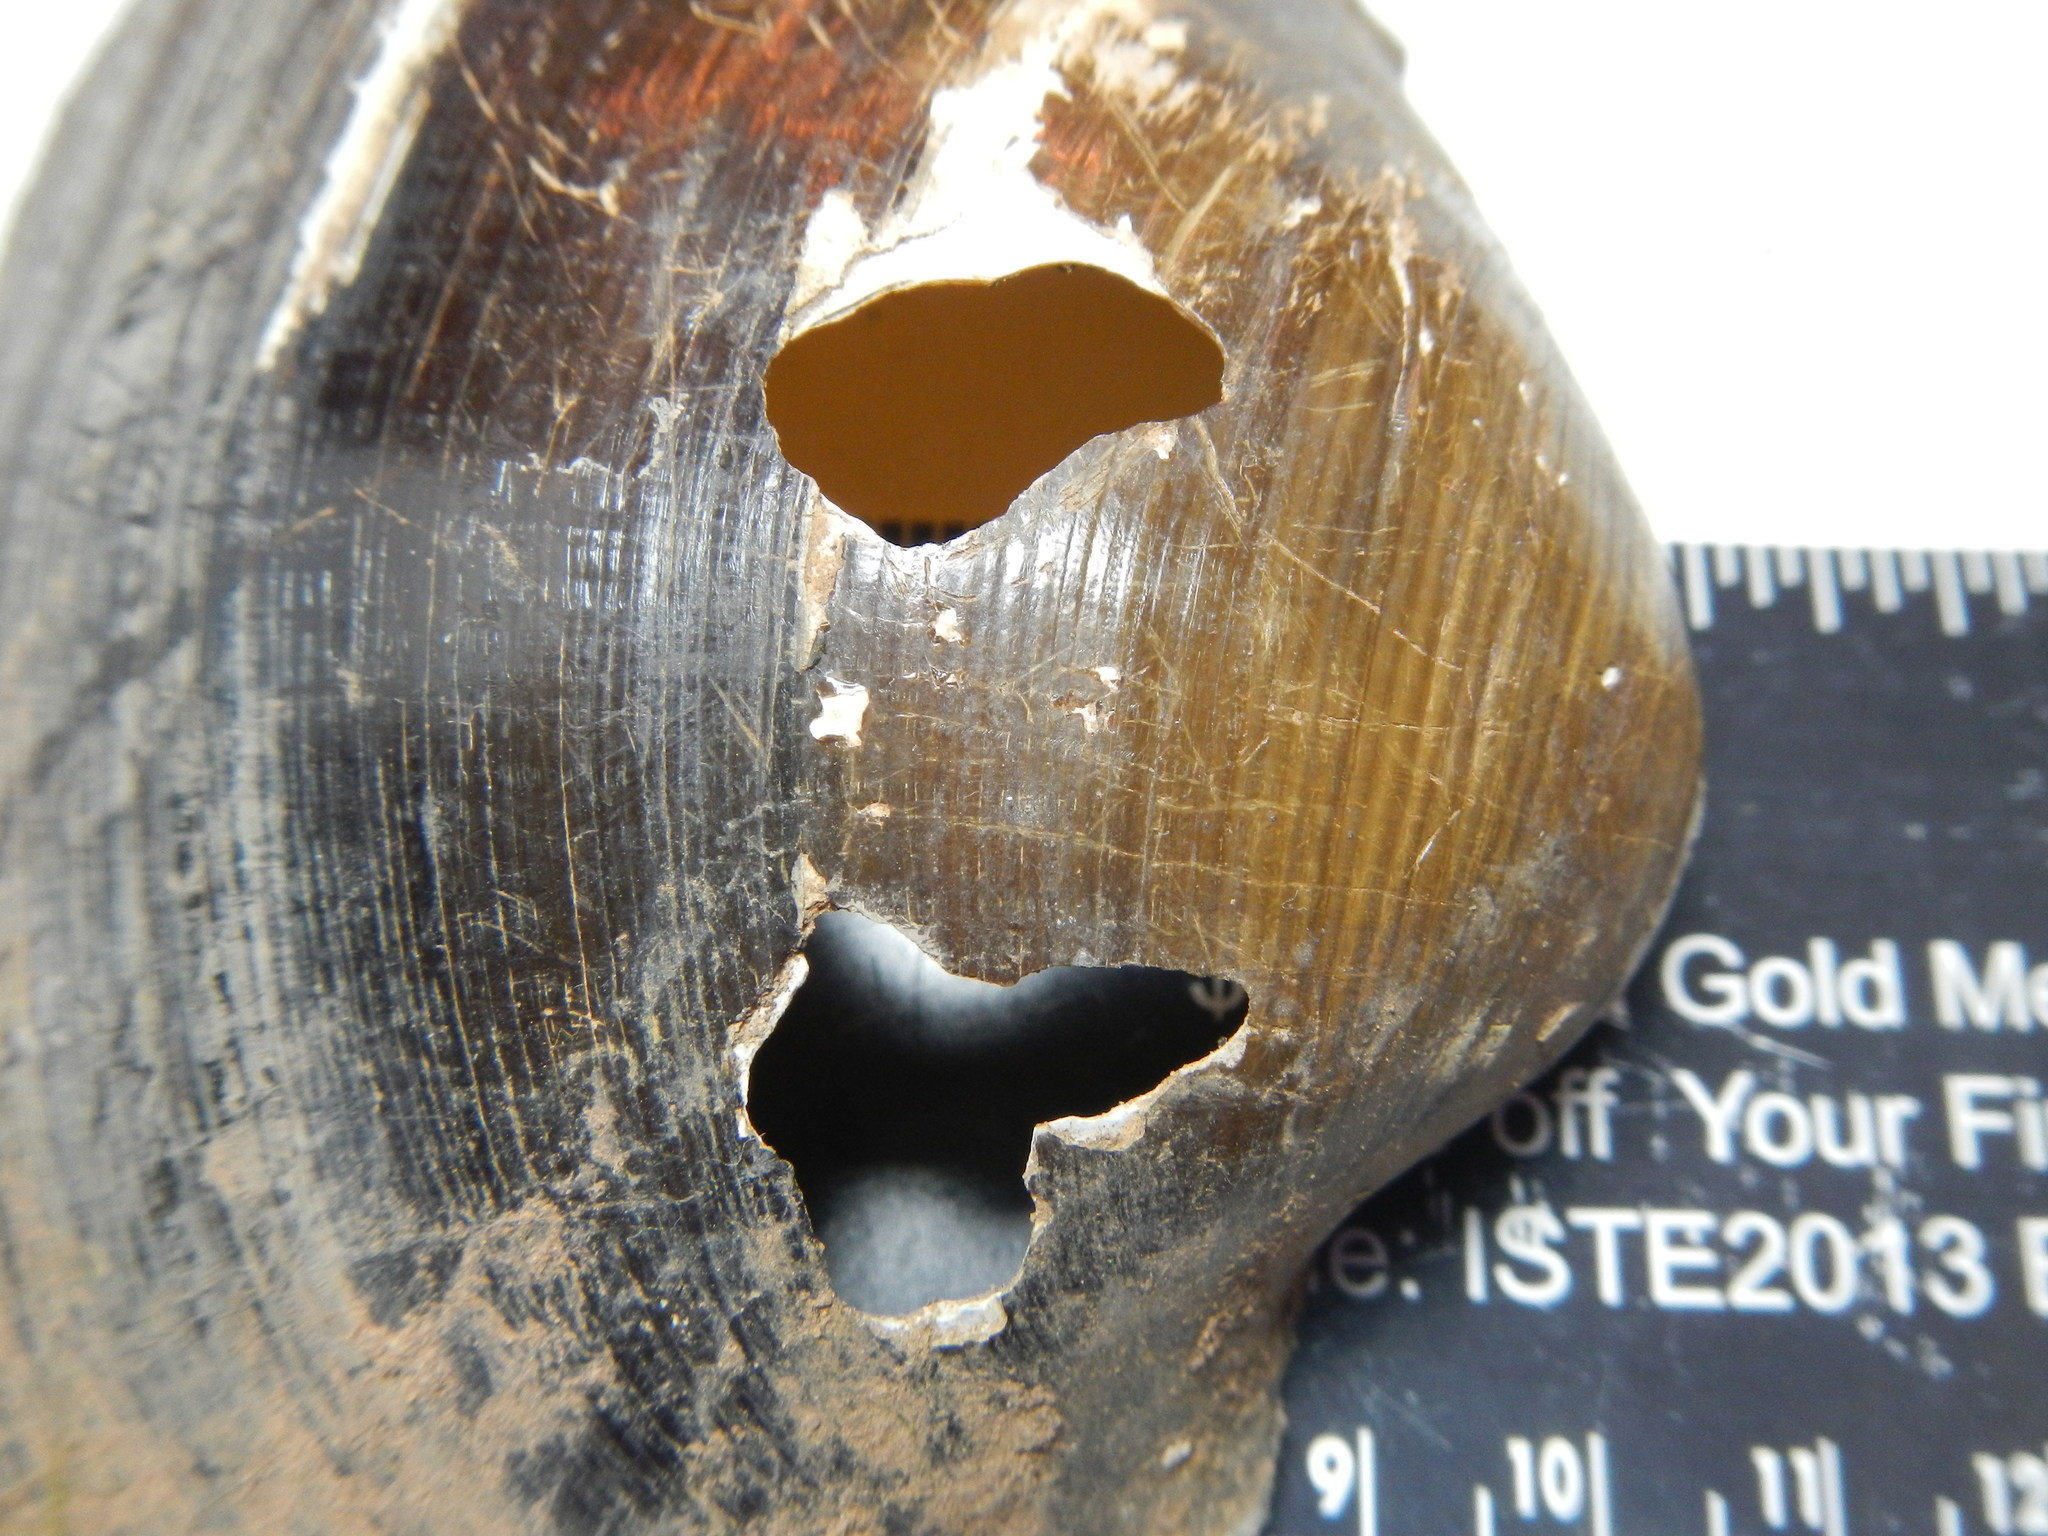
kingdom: Animalia
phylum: Mollusca
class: Bivalvia
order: Unionida
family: Unionidae
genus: Pyganodon
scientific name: Pyganodon grandis
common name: Giant floater
